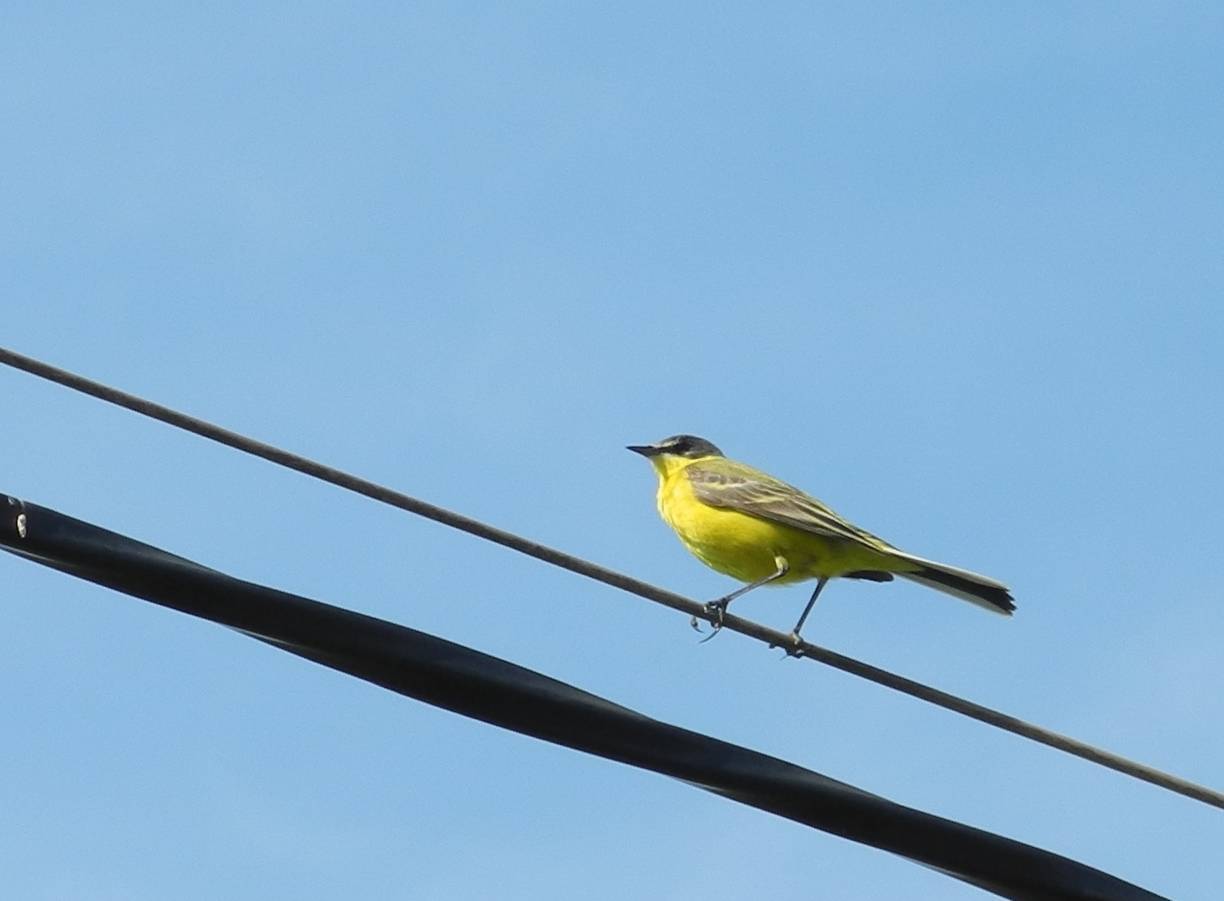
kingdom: Animalia
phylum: Chordata
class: Aves
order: Passeriformes
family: Motacillidae
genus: Motacilla
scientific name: Motacilla flava
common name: Western yellow wagtail
